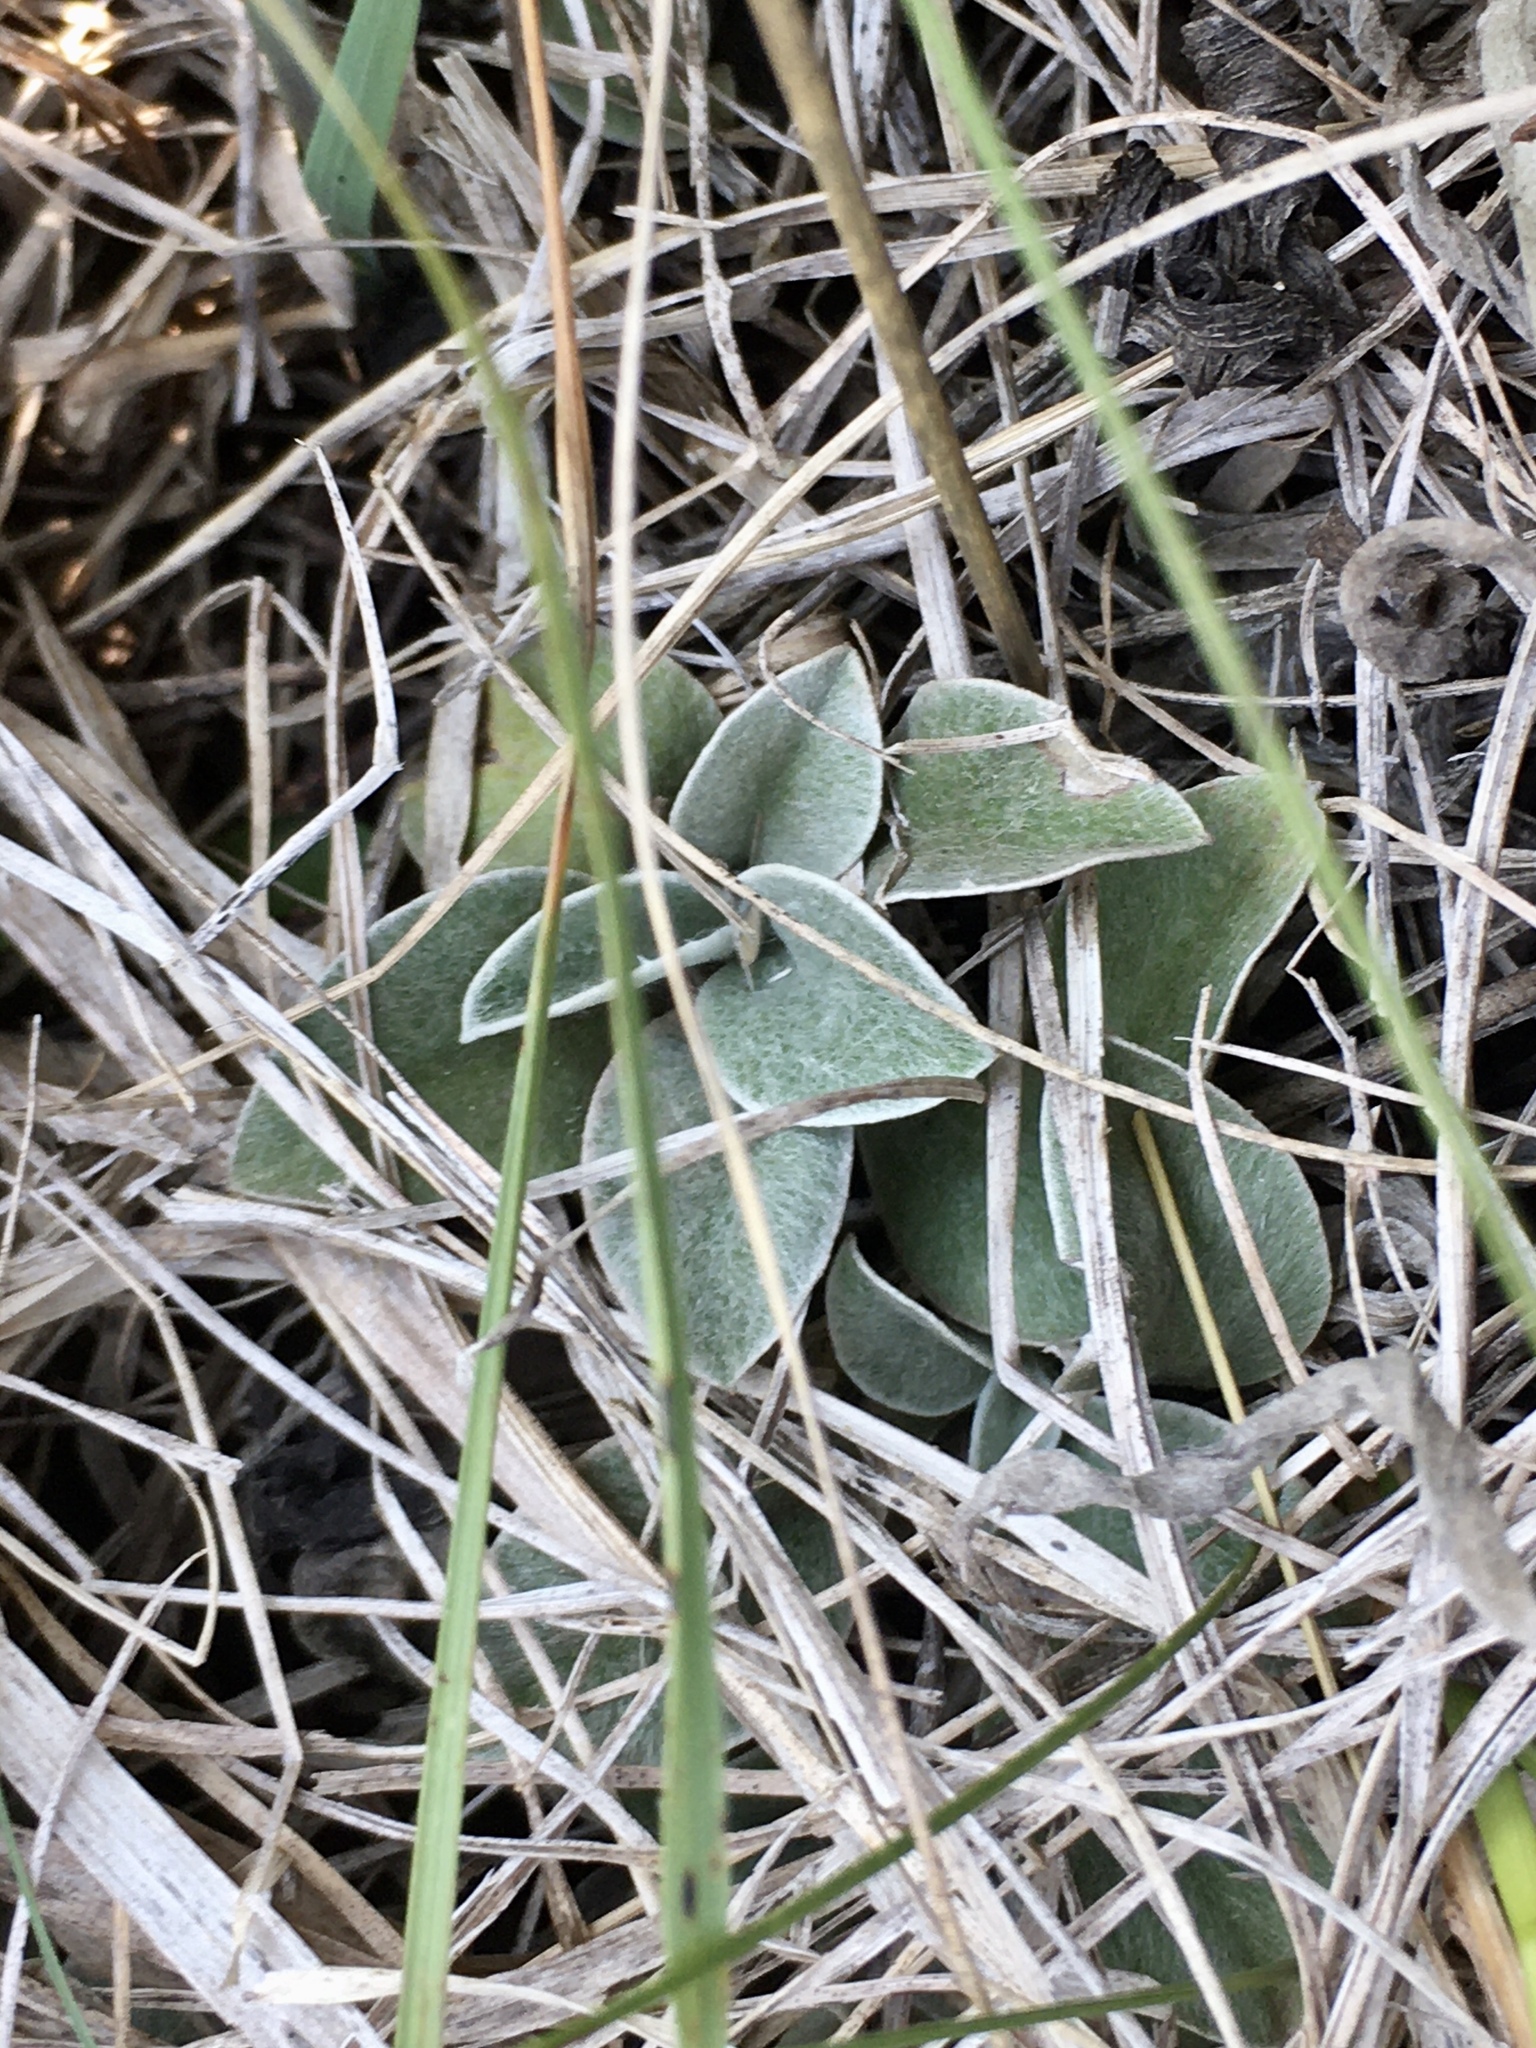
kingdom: Plantae
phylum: Tracheophyta
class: Magnoliopsida
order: Asterales
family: Asteraceae
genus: Antennaria
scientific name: Antennaria neglecta
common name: Field pussytoes
